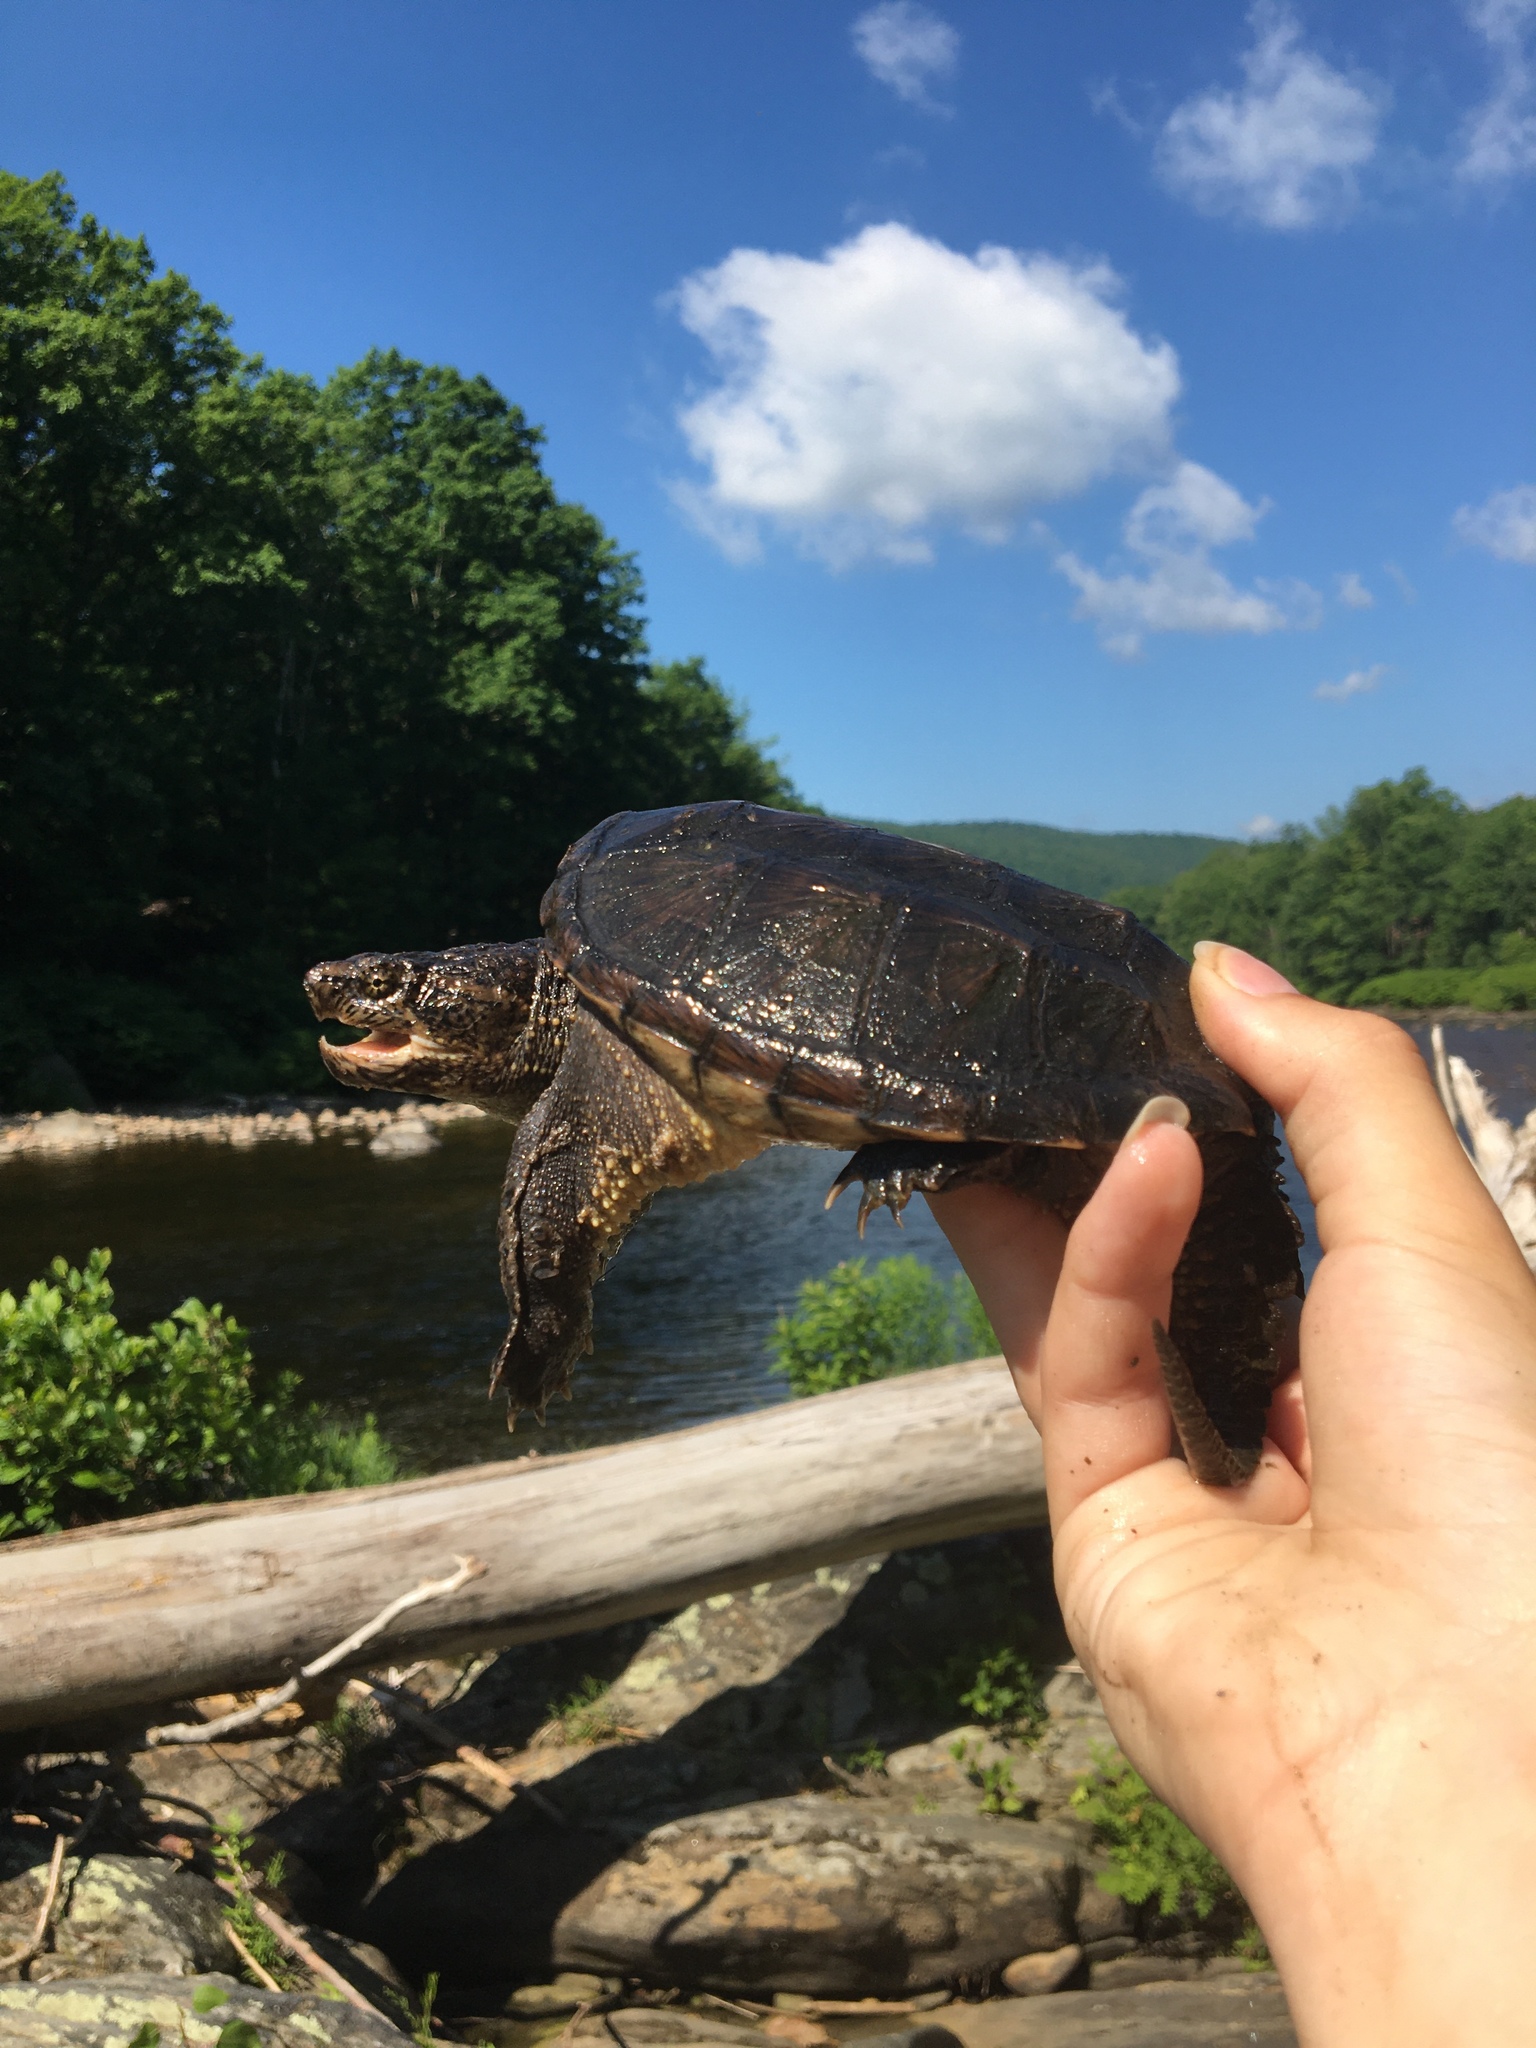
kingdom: Animalia
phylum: Chordata
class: Testudines
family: Chelydridae
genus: Chelydra
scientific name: Chelydra serpentina
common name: Common snapping turtle
